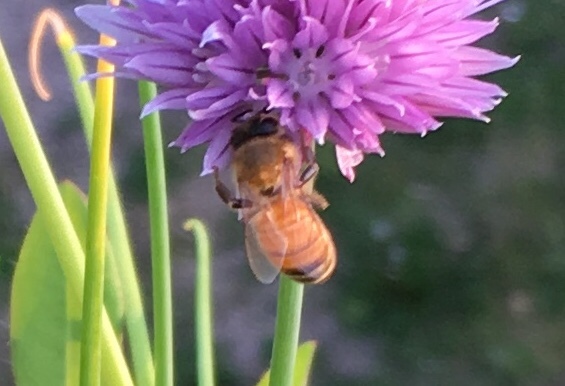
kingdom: Animalia
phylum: Arthropoda
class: Insecta
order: Hymenoptera
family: Apidae
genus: Apis
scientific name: Apis mellifera
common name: Honey bee
